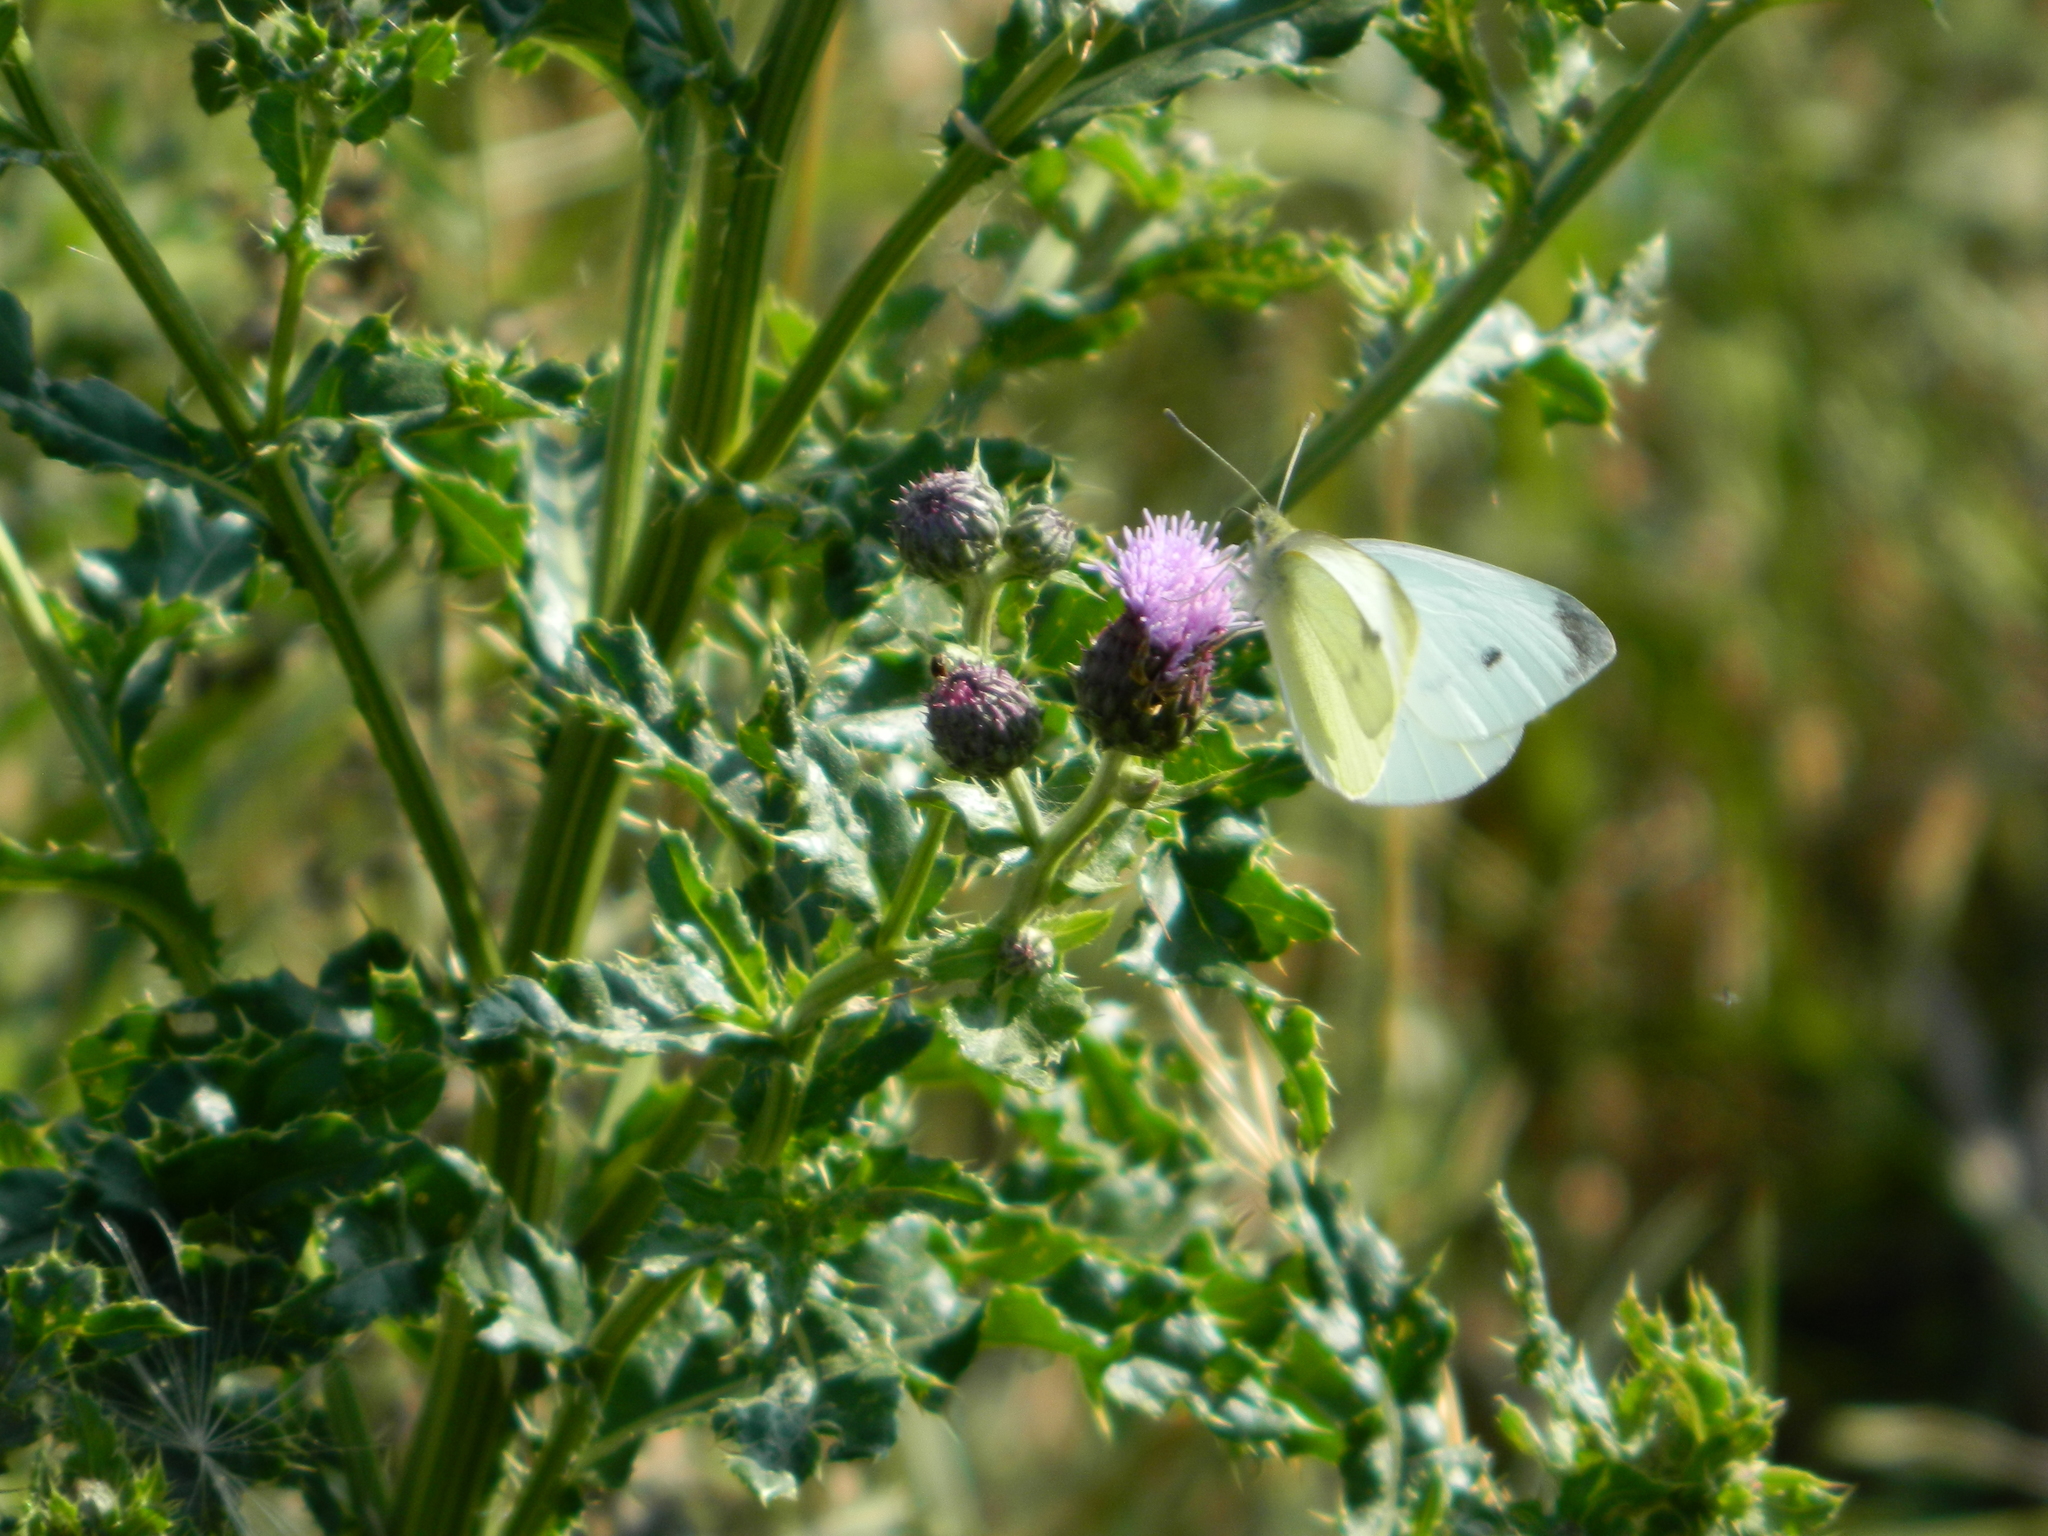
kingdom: Animalia
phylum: Arthropoda
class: Insecta
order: Lepidoptera
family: Pieridae
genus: Pieris
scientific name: Pieris rapae
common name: Small white
